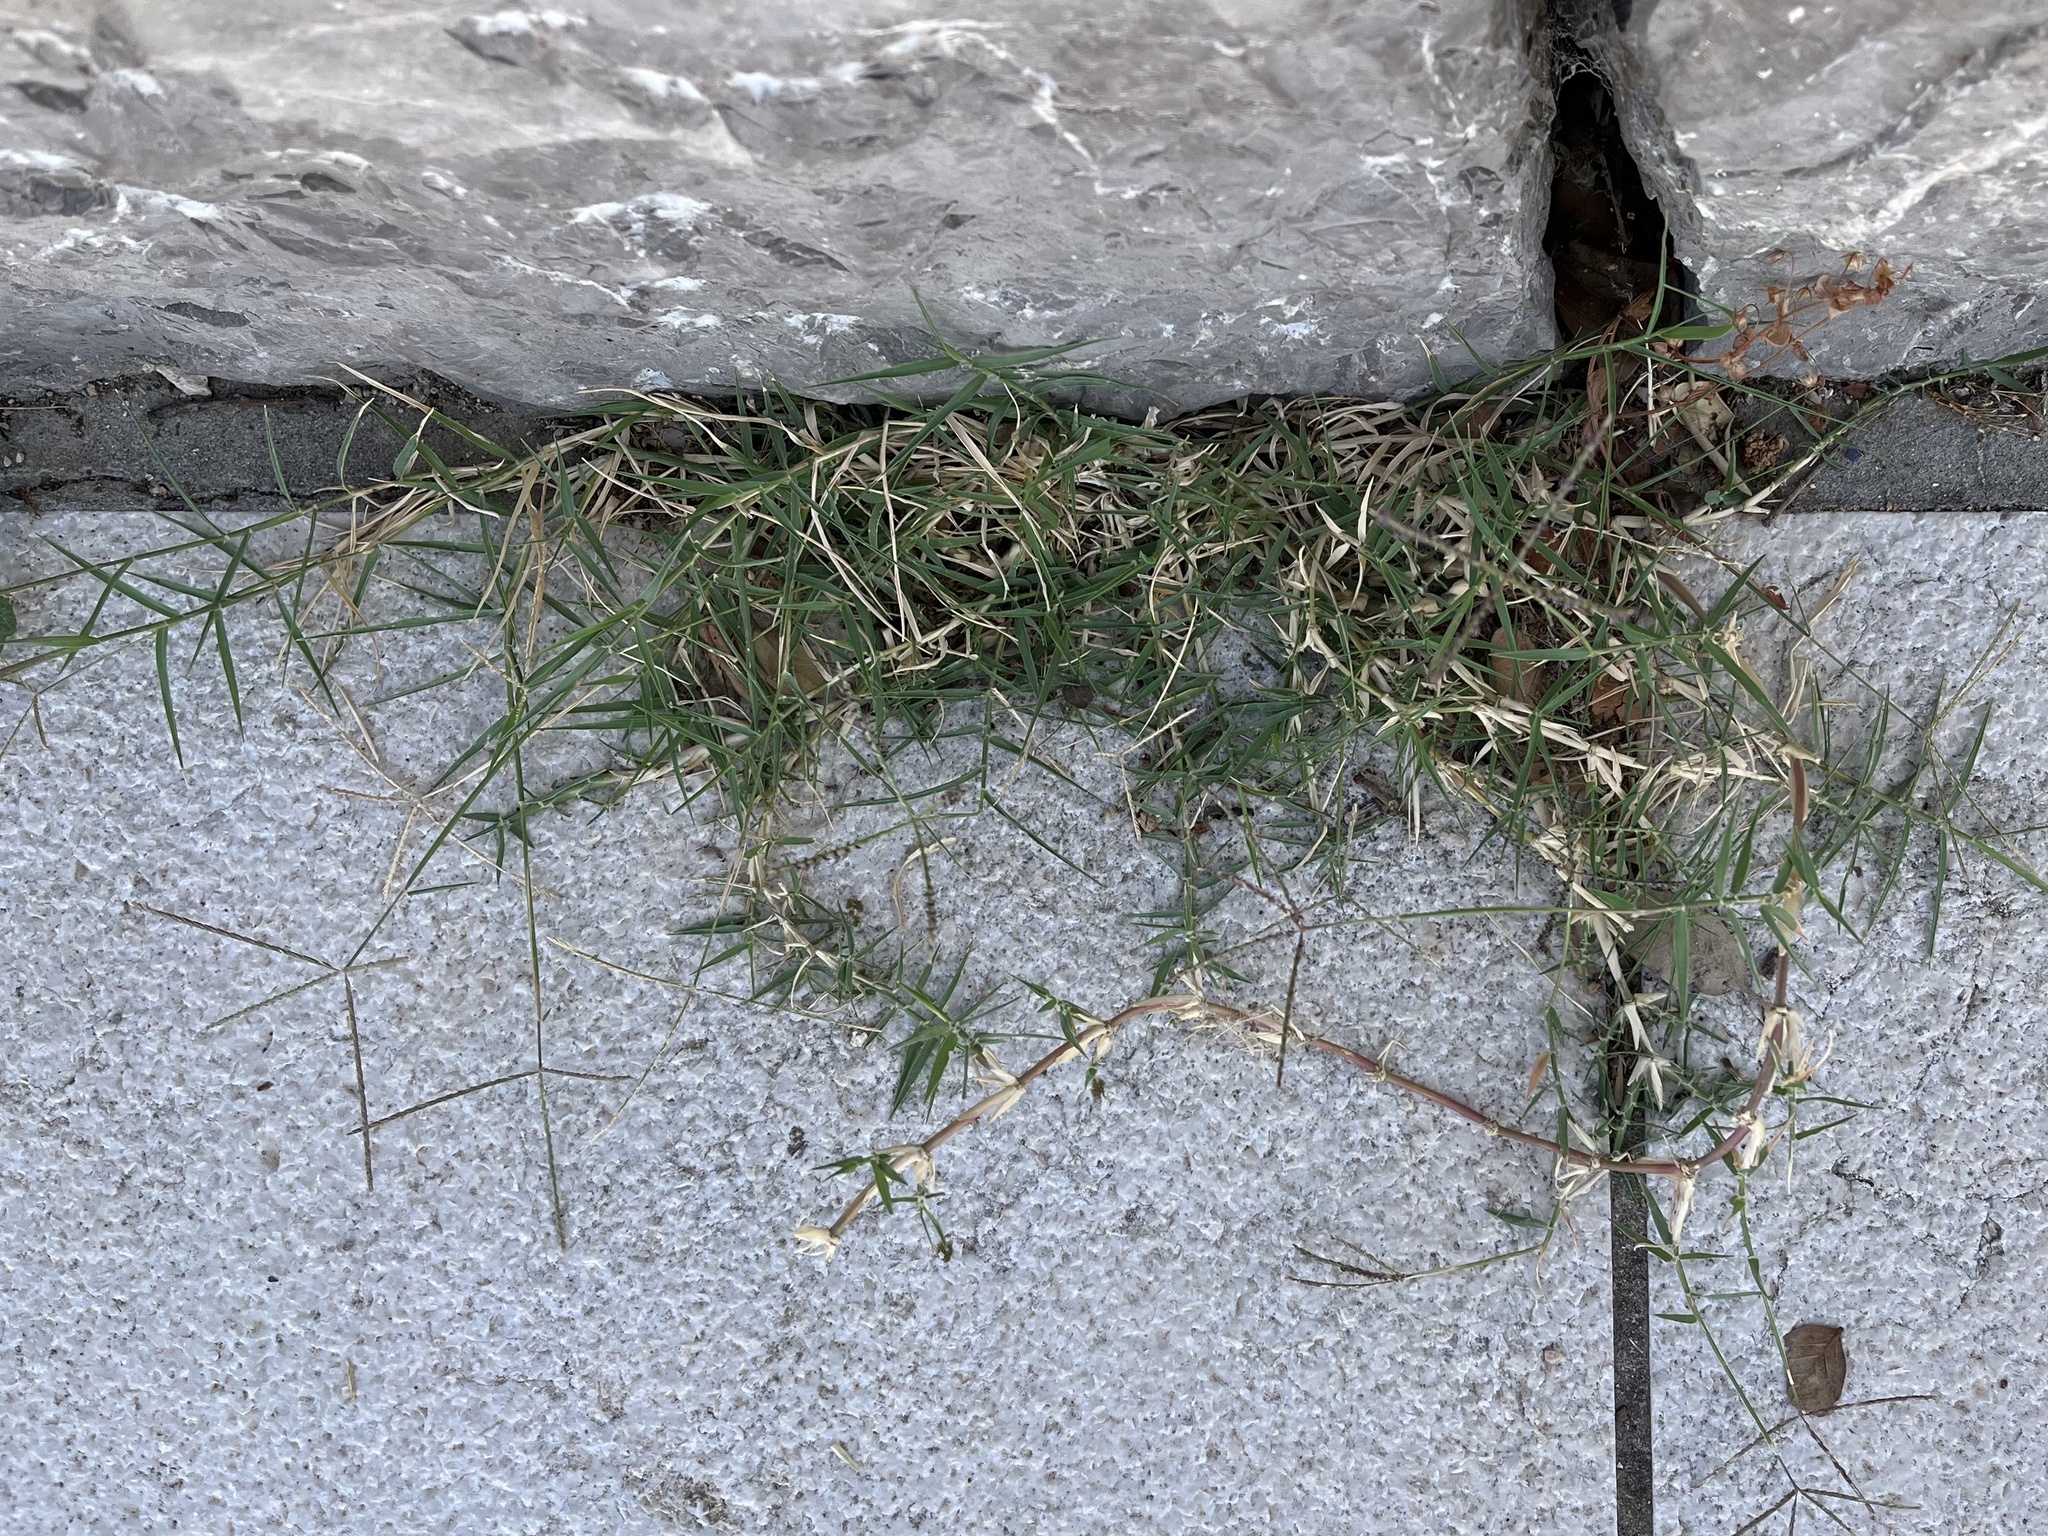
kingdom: Plantae
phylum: Tracheophyta
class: Liliopsida
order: Poales
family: Poaceae
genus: Cynodon
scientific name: Cynodon dactylon
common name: Bermuda grass
